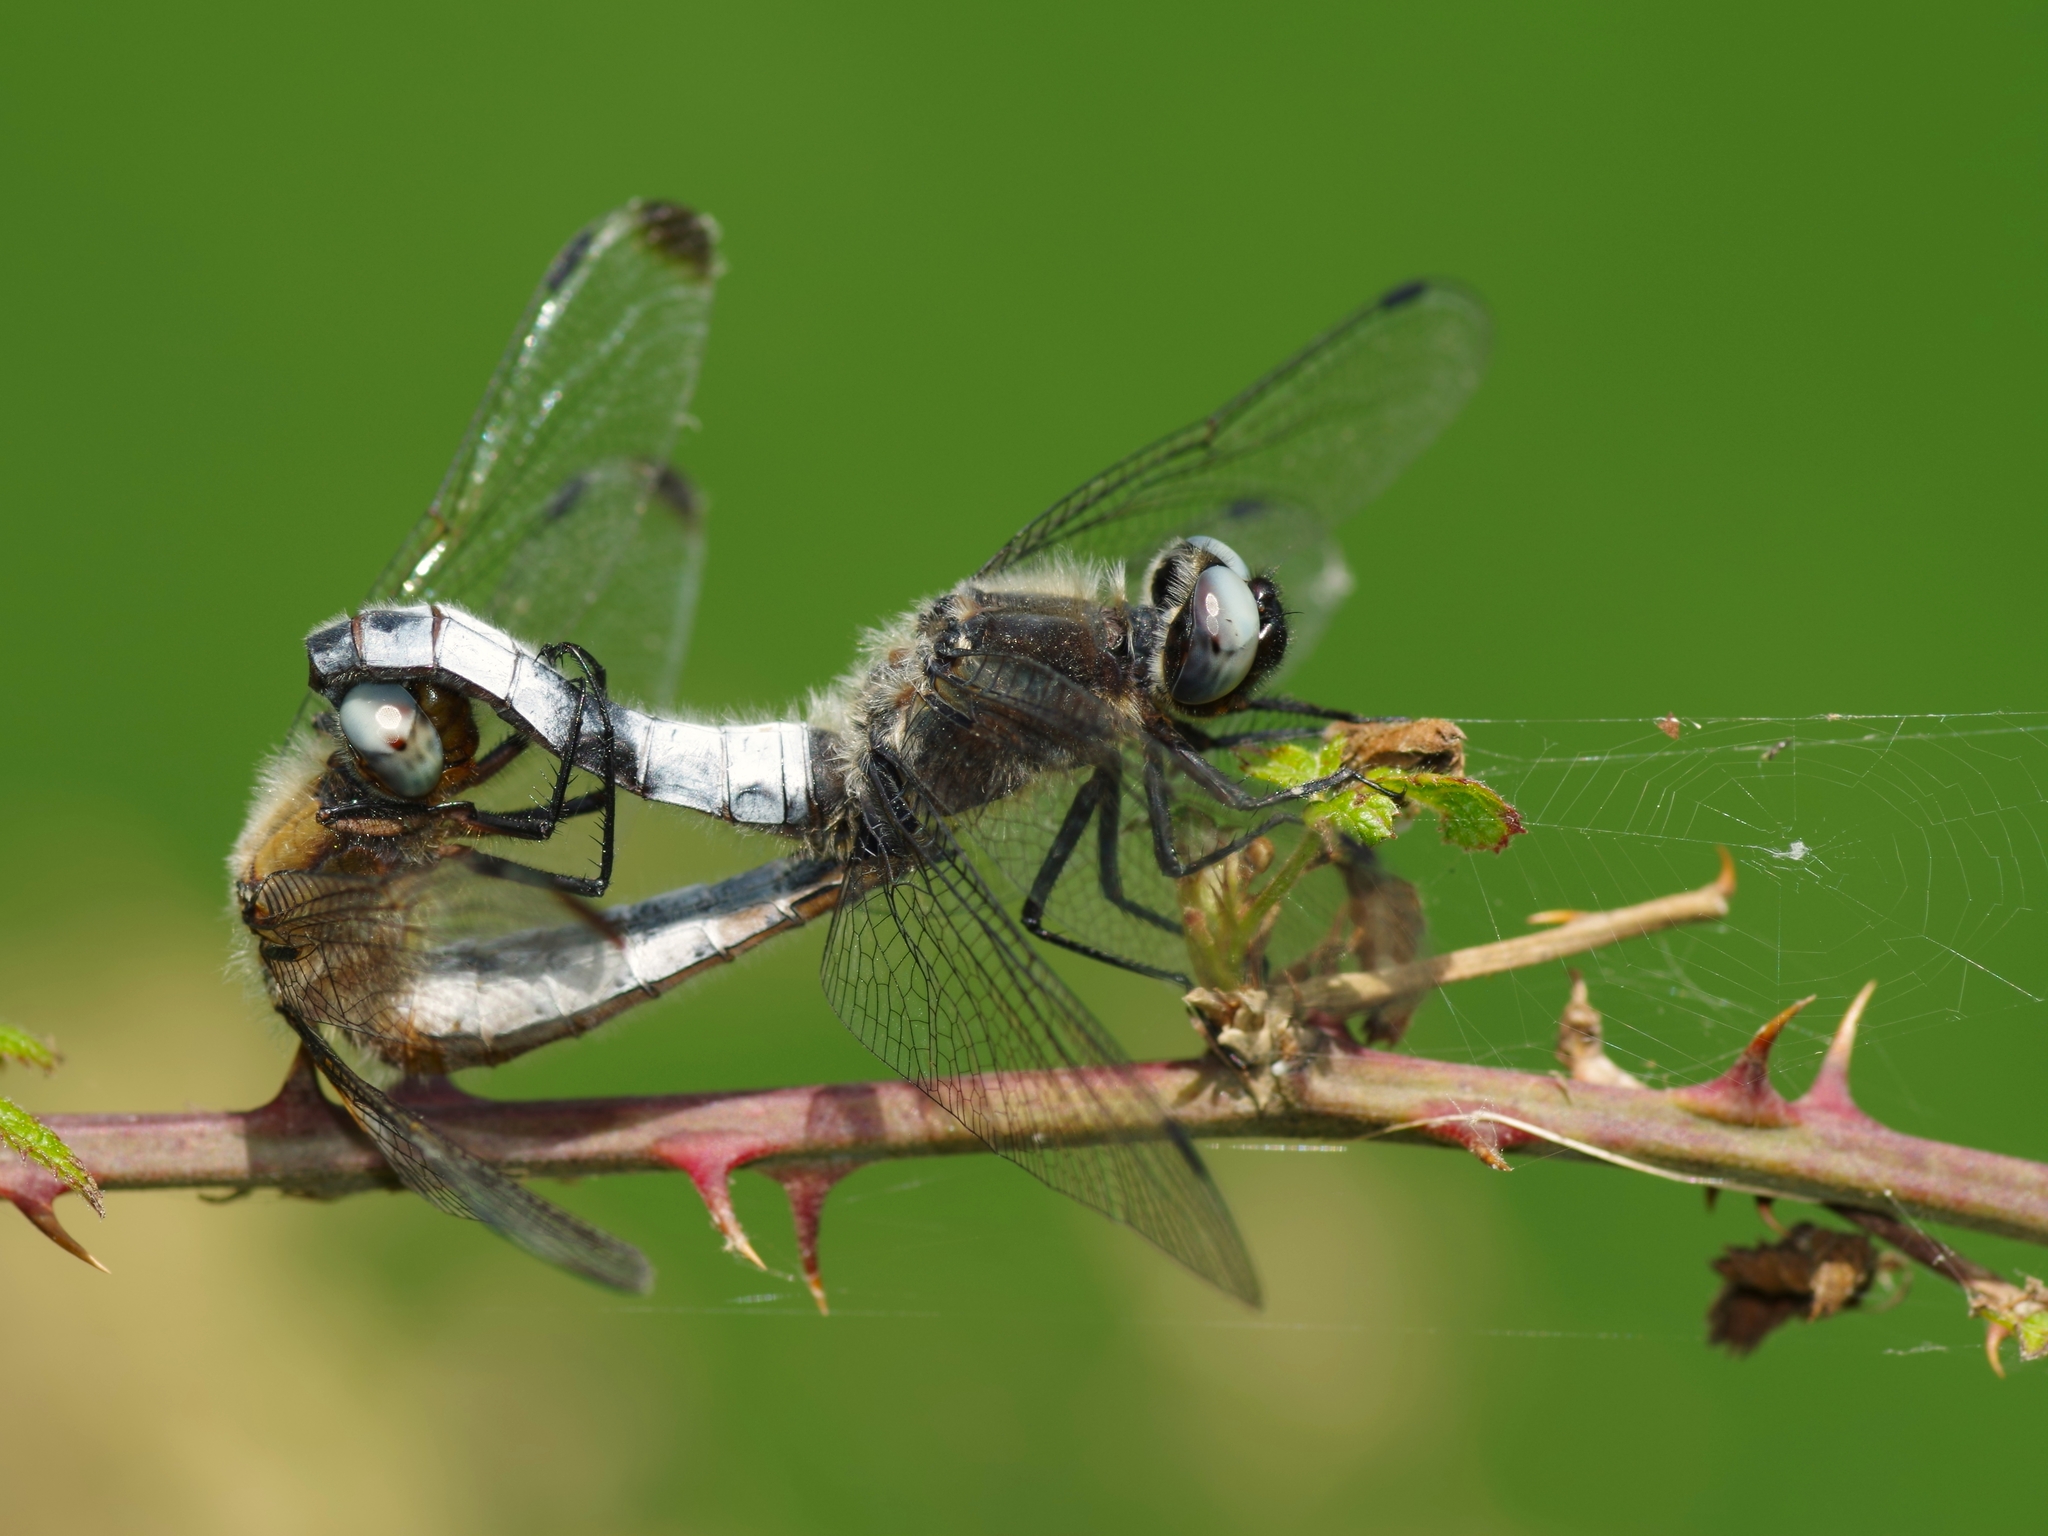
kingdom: Animalia
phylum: Arthropoda
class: Insecta
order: Odonata
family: Libellulidae
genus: Libellula
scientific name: Libellula fulva
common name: Blue chaser
